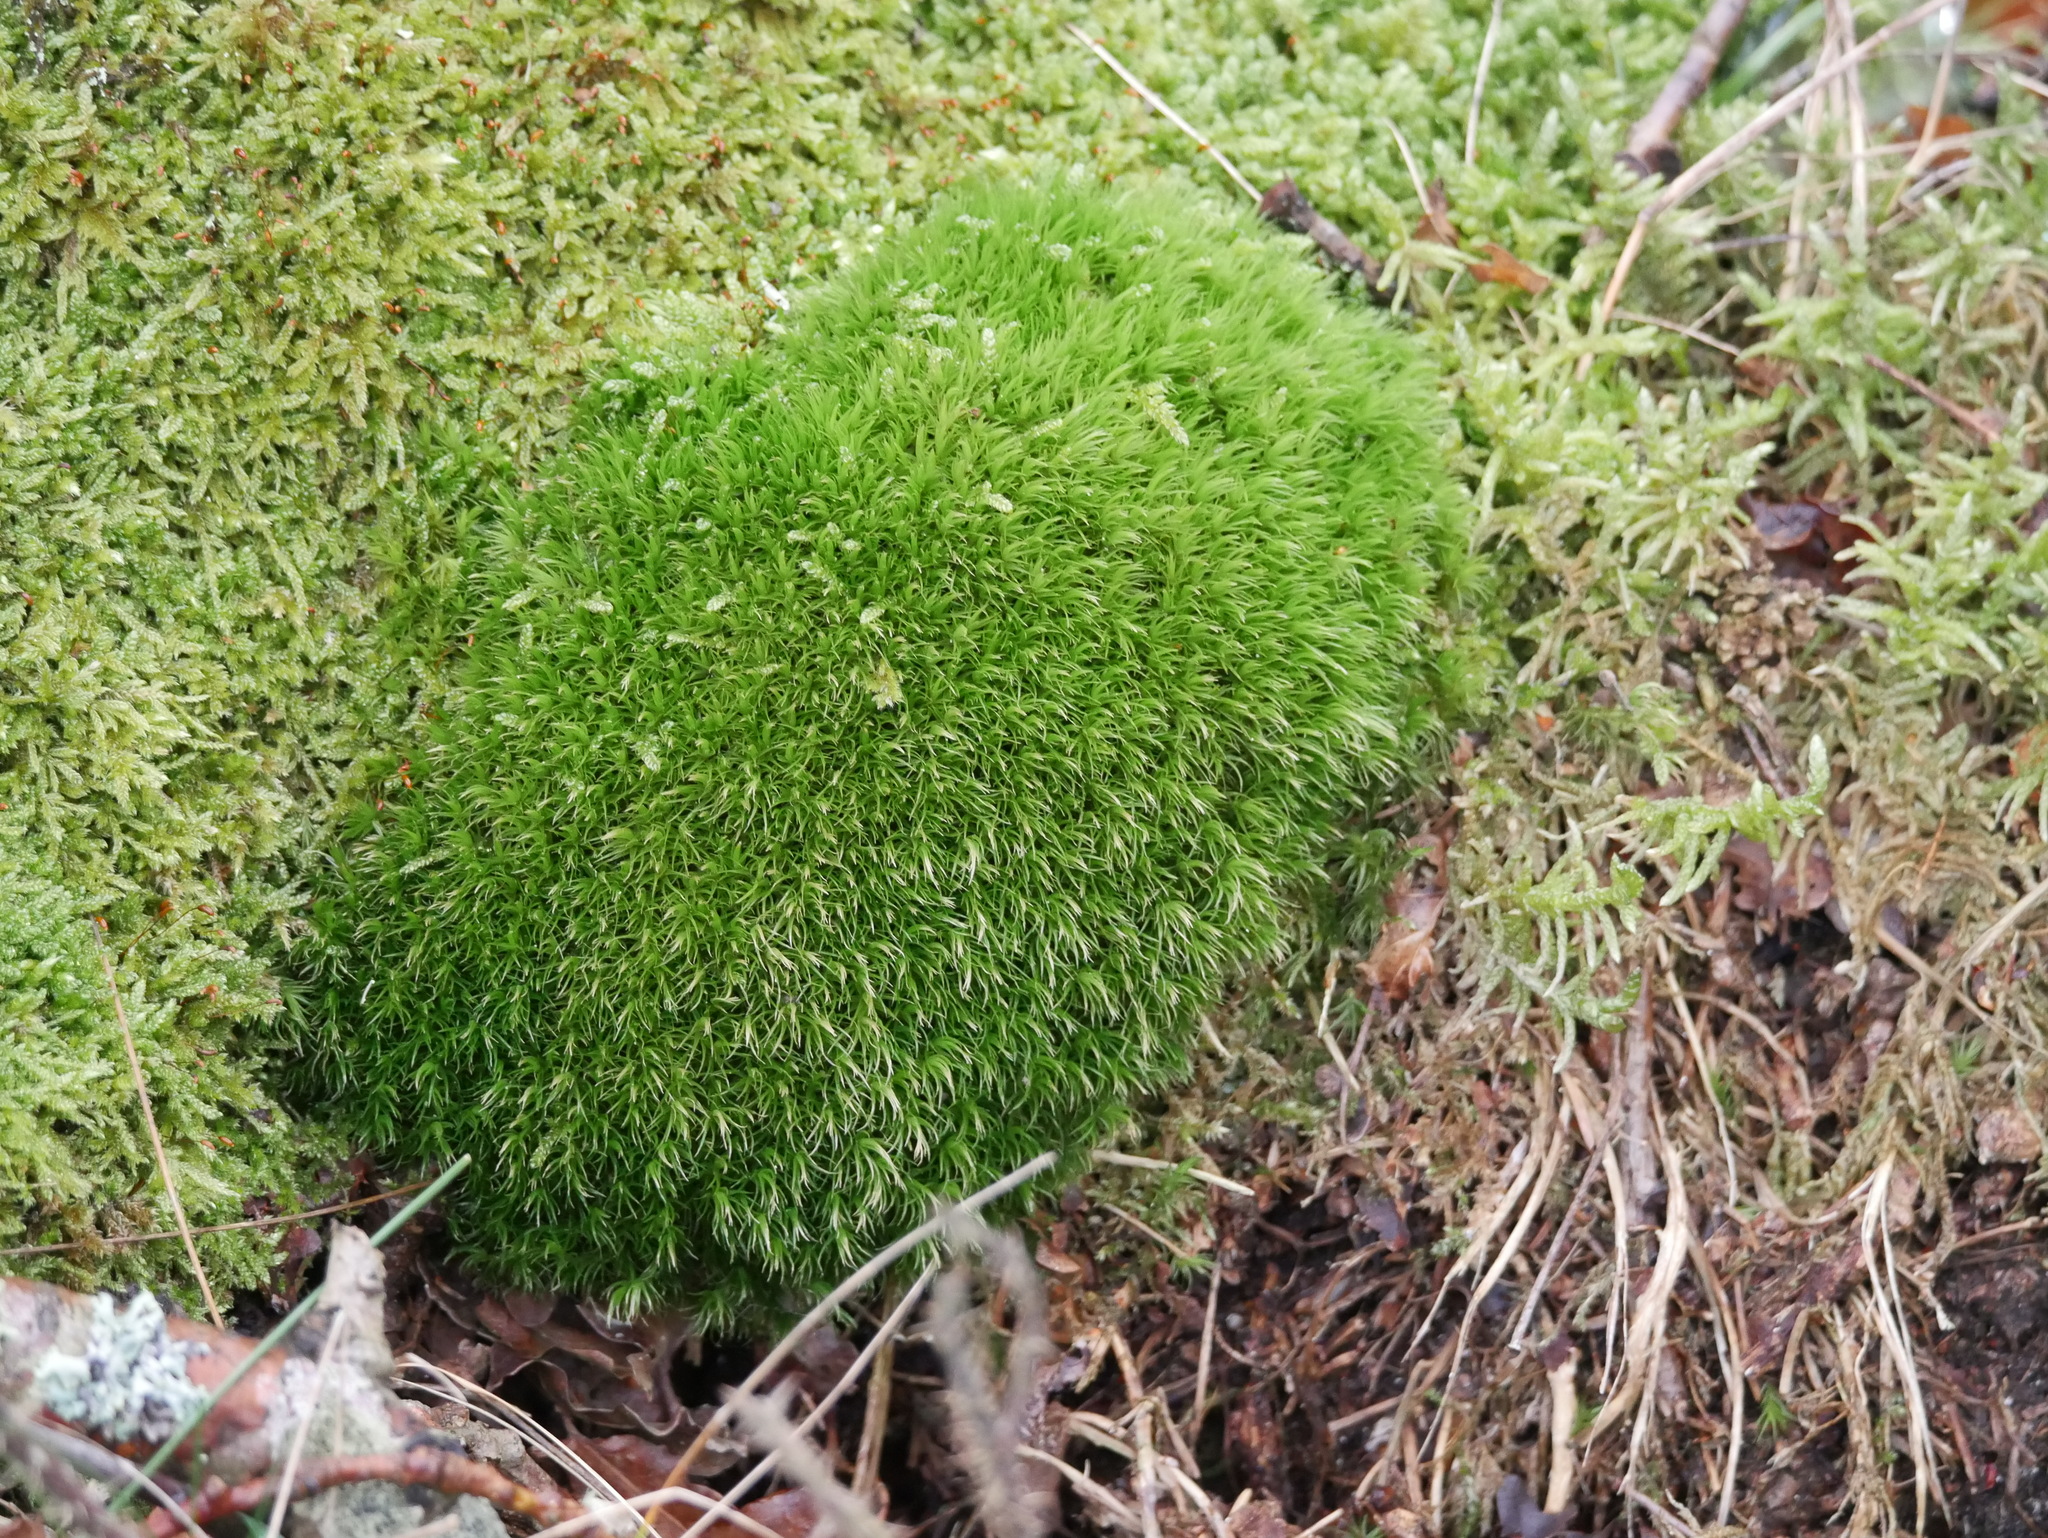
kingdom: Plantae
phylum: Bryophyta
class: Bryopsida
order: Dicranales
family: Dicranaceae
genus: Dicranum
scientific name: Dicranum scoparium
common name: Broom fork-moss
